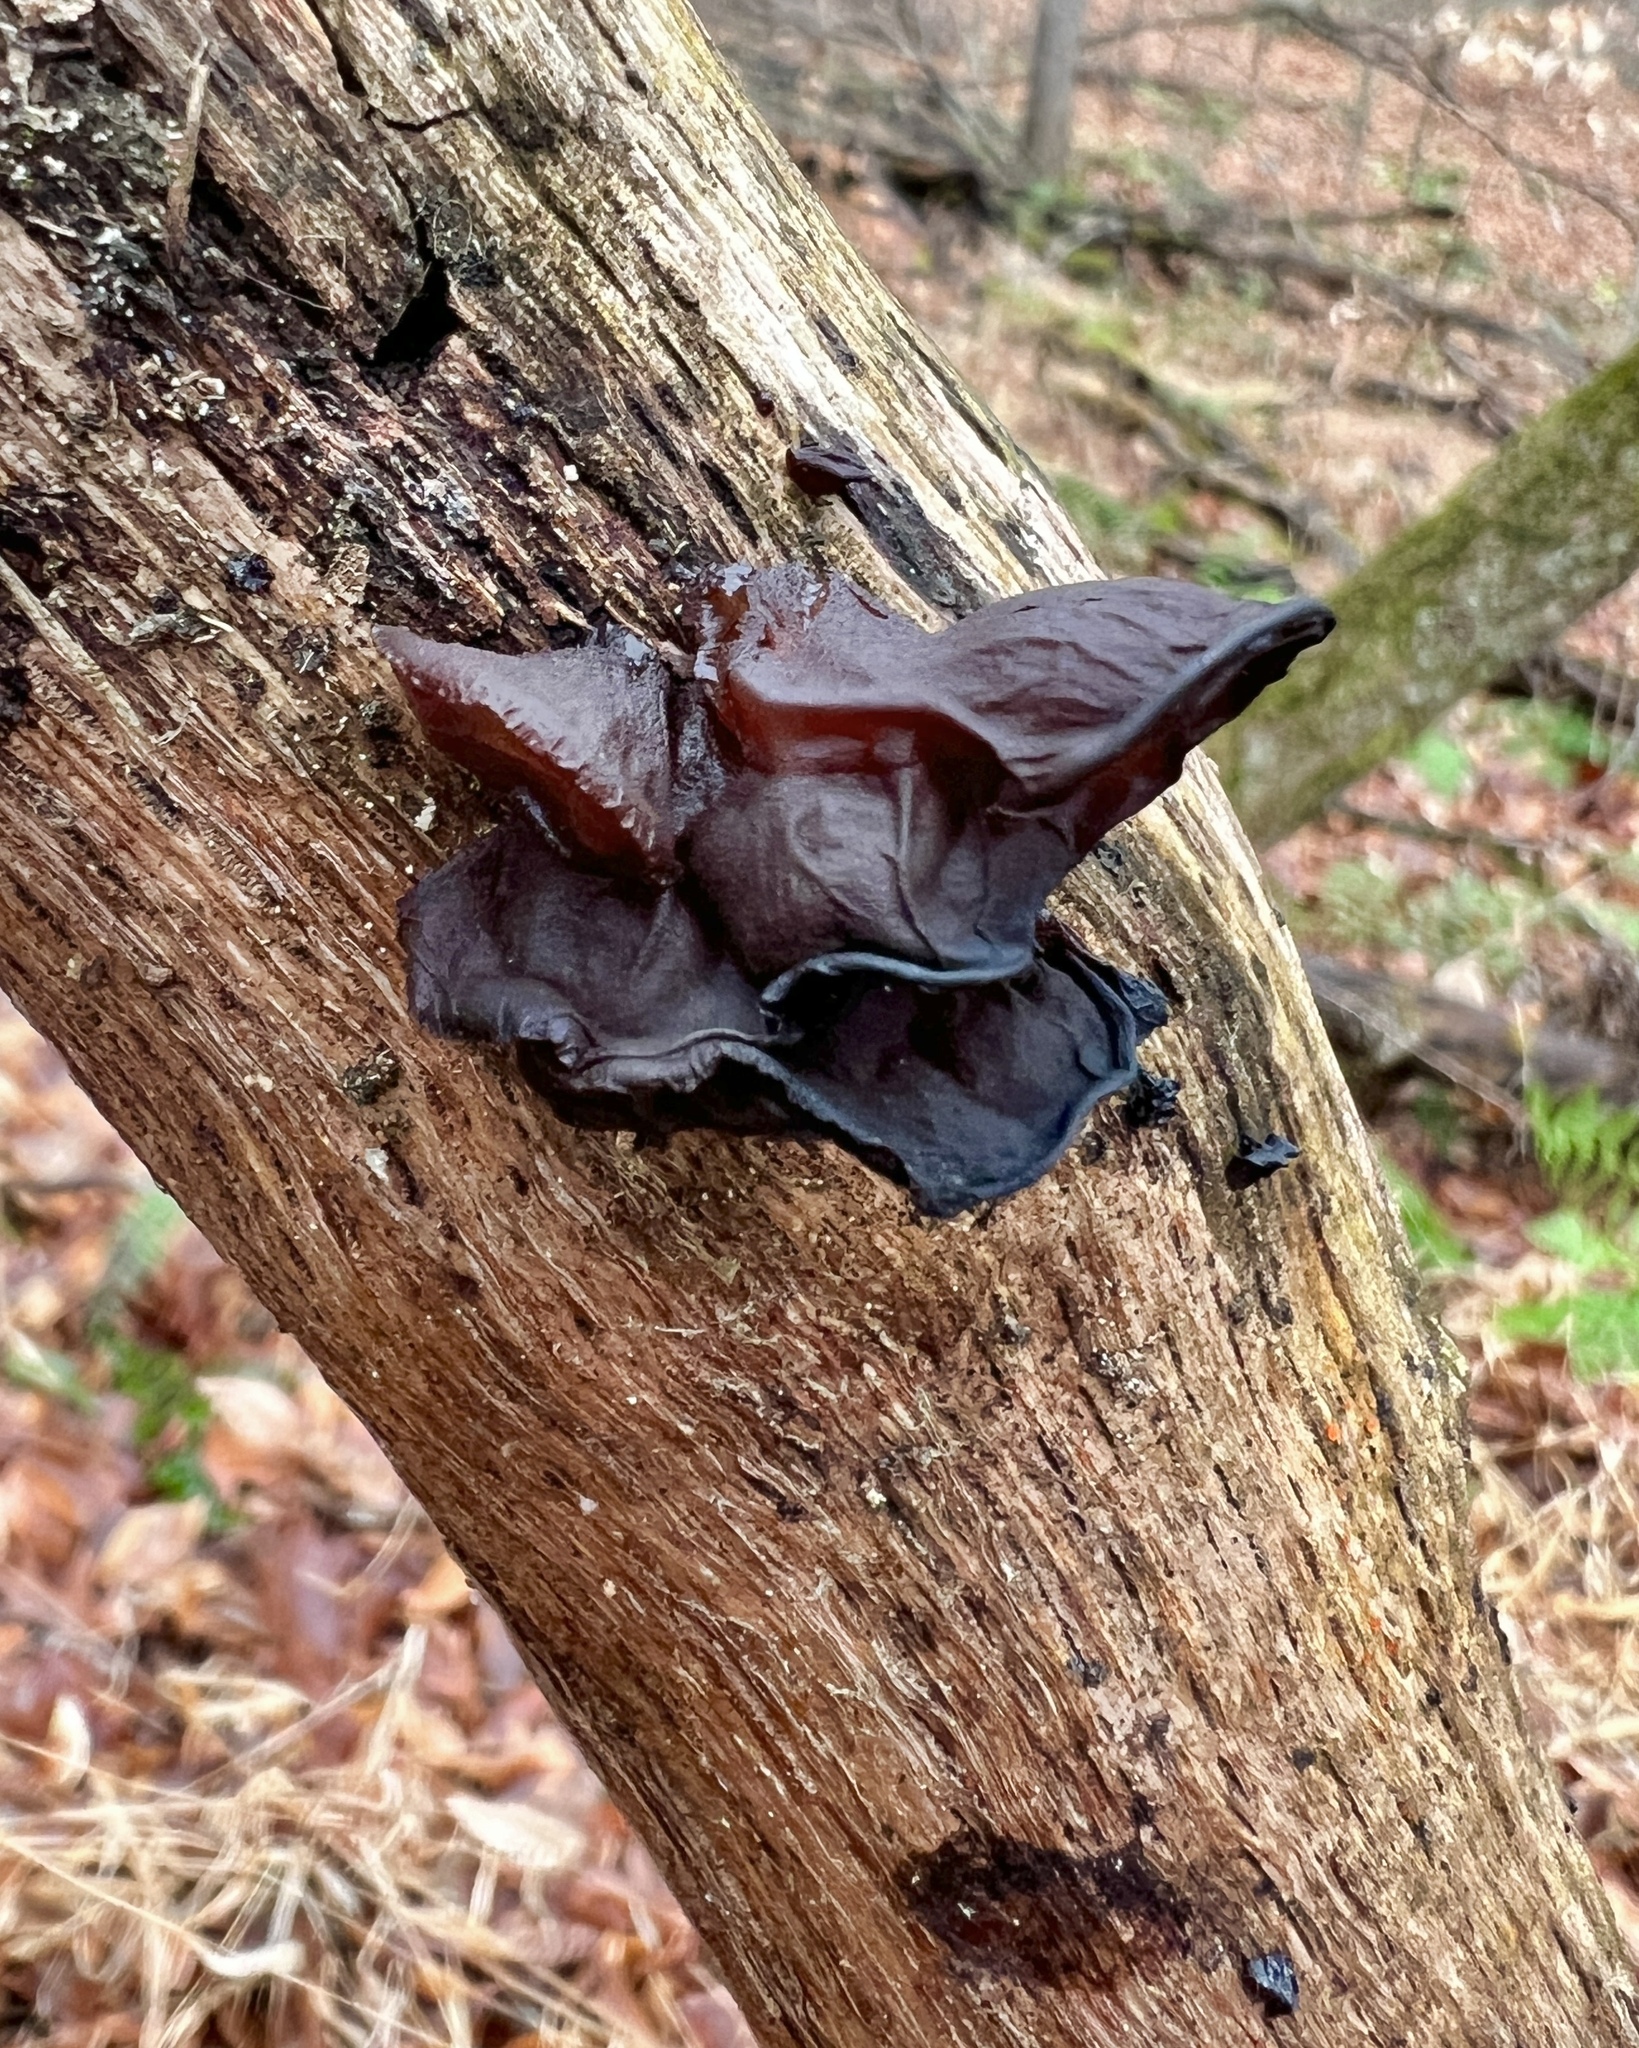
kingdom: Fungi
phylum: Basidiomycota
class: Agaricomycetes
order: Auriculariales
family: Auriculariaceae
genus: Exidia
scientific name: Exidia
